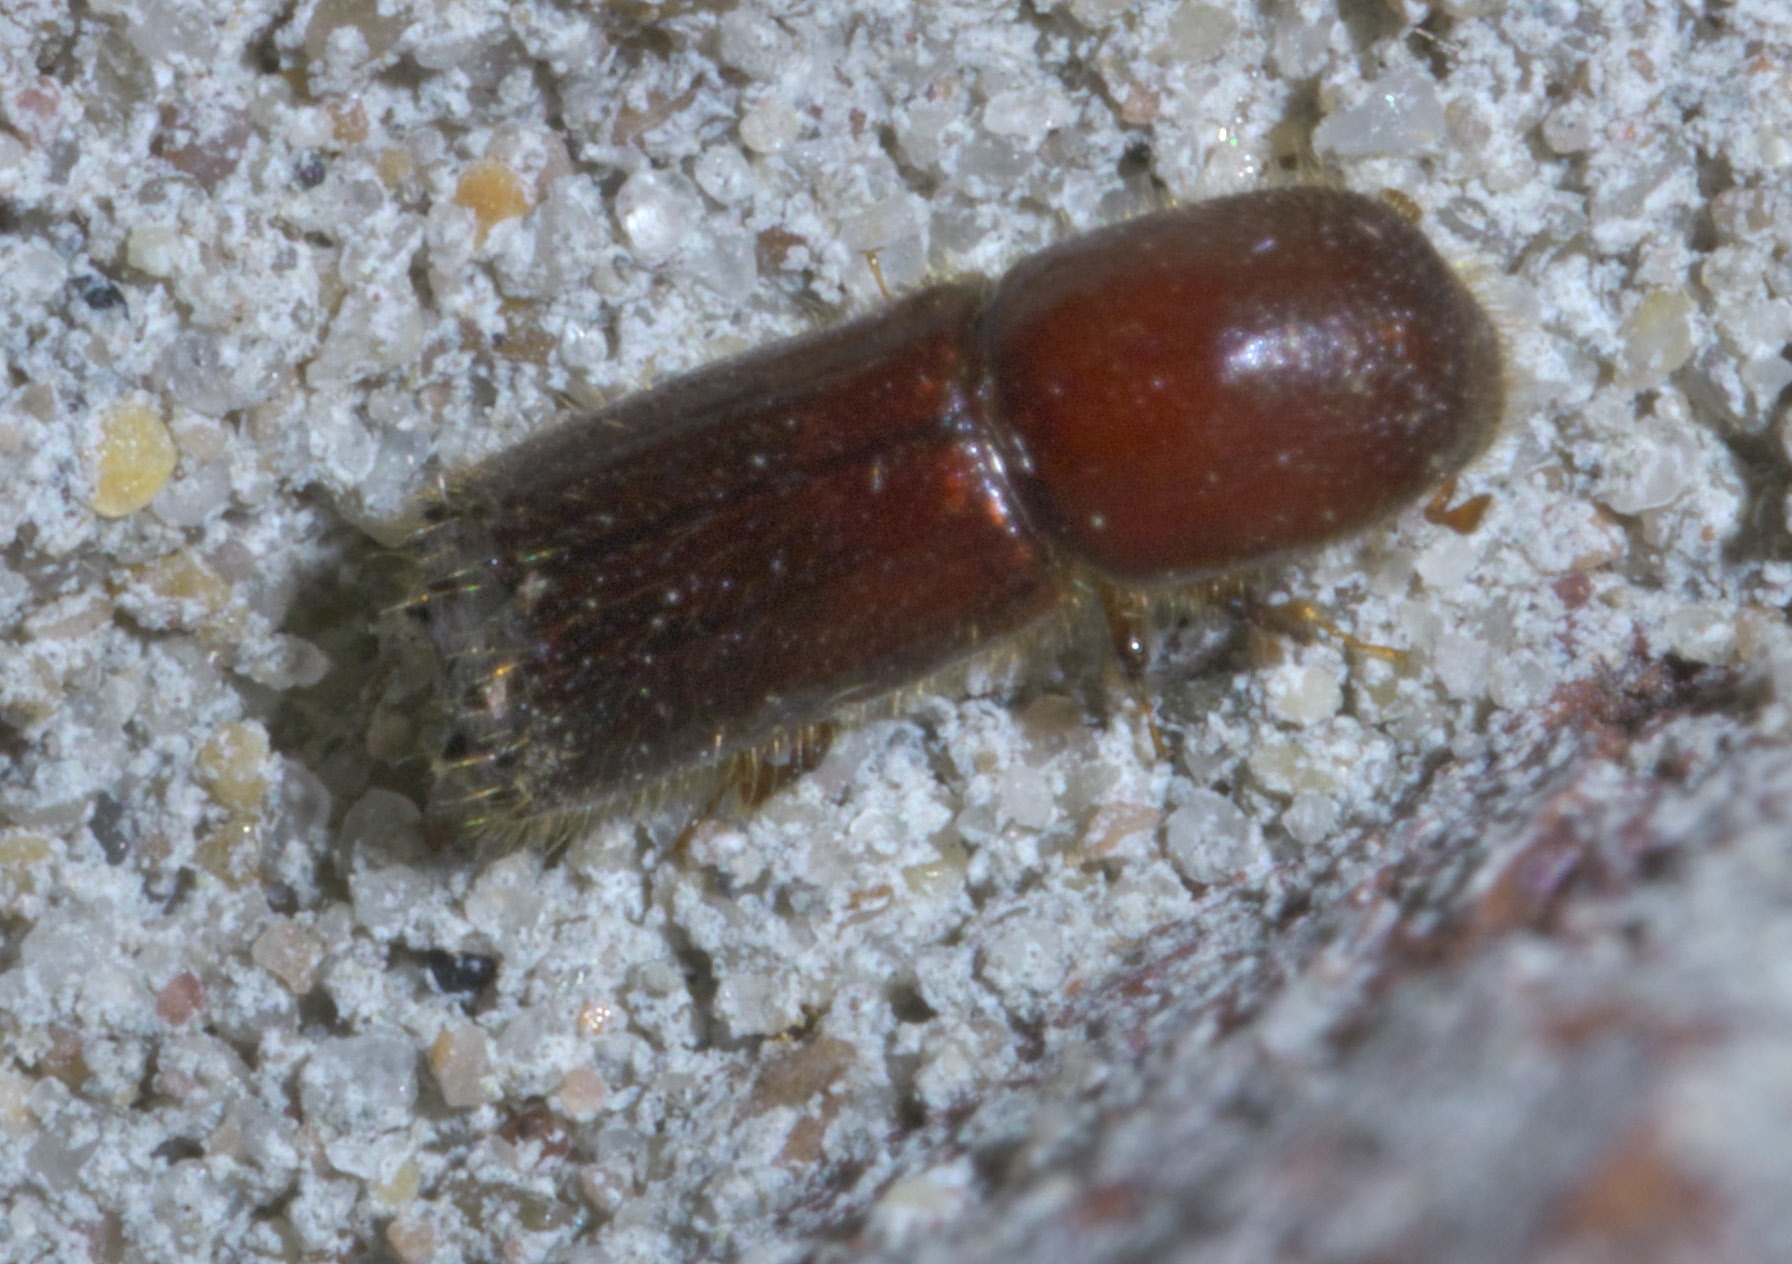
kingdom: Animalia
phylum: Arthropoda
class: Insecta
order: Coleoptera
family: Curculionidae
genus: Xyleborus
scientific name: Xyleborus celsus
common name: Weevil
